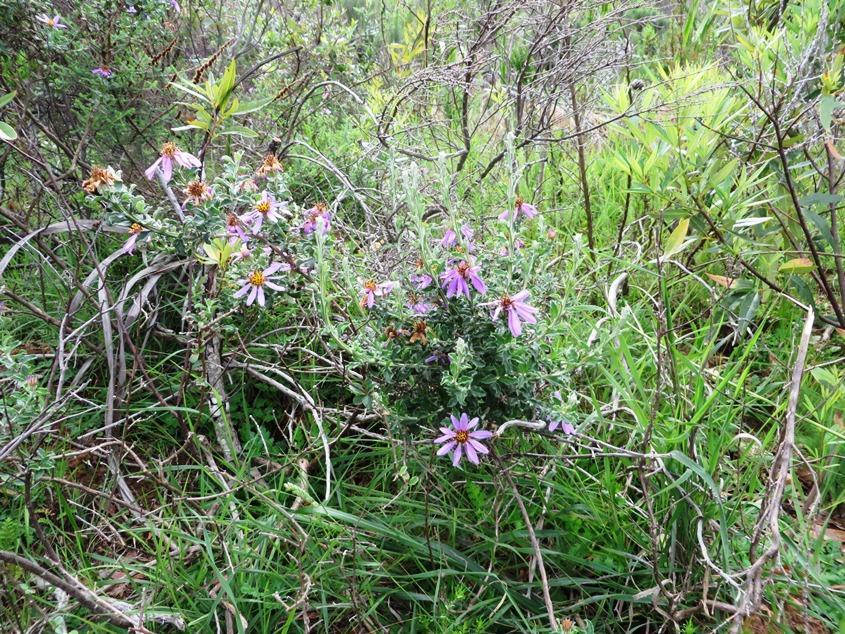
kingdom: Plantae
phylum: Tracheophyta
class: Magnoliopsida
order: Asterales
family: Asteraceae
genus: Printzia
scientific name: Printzia polifolia
